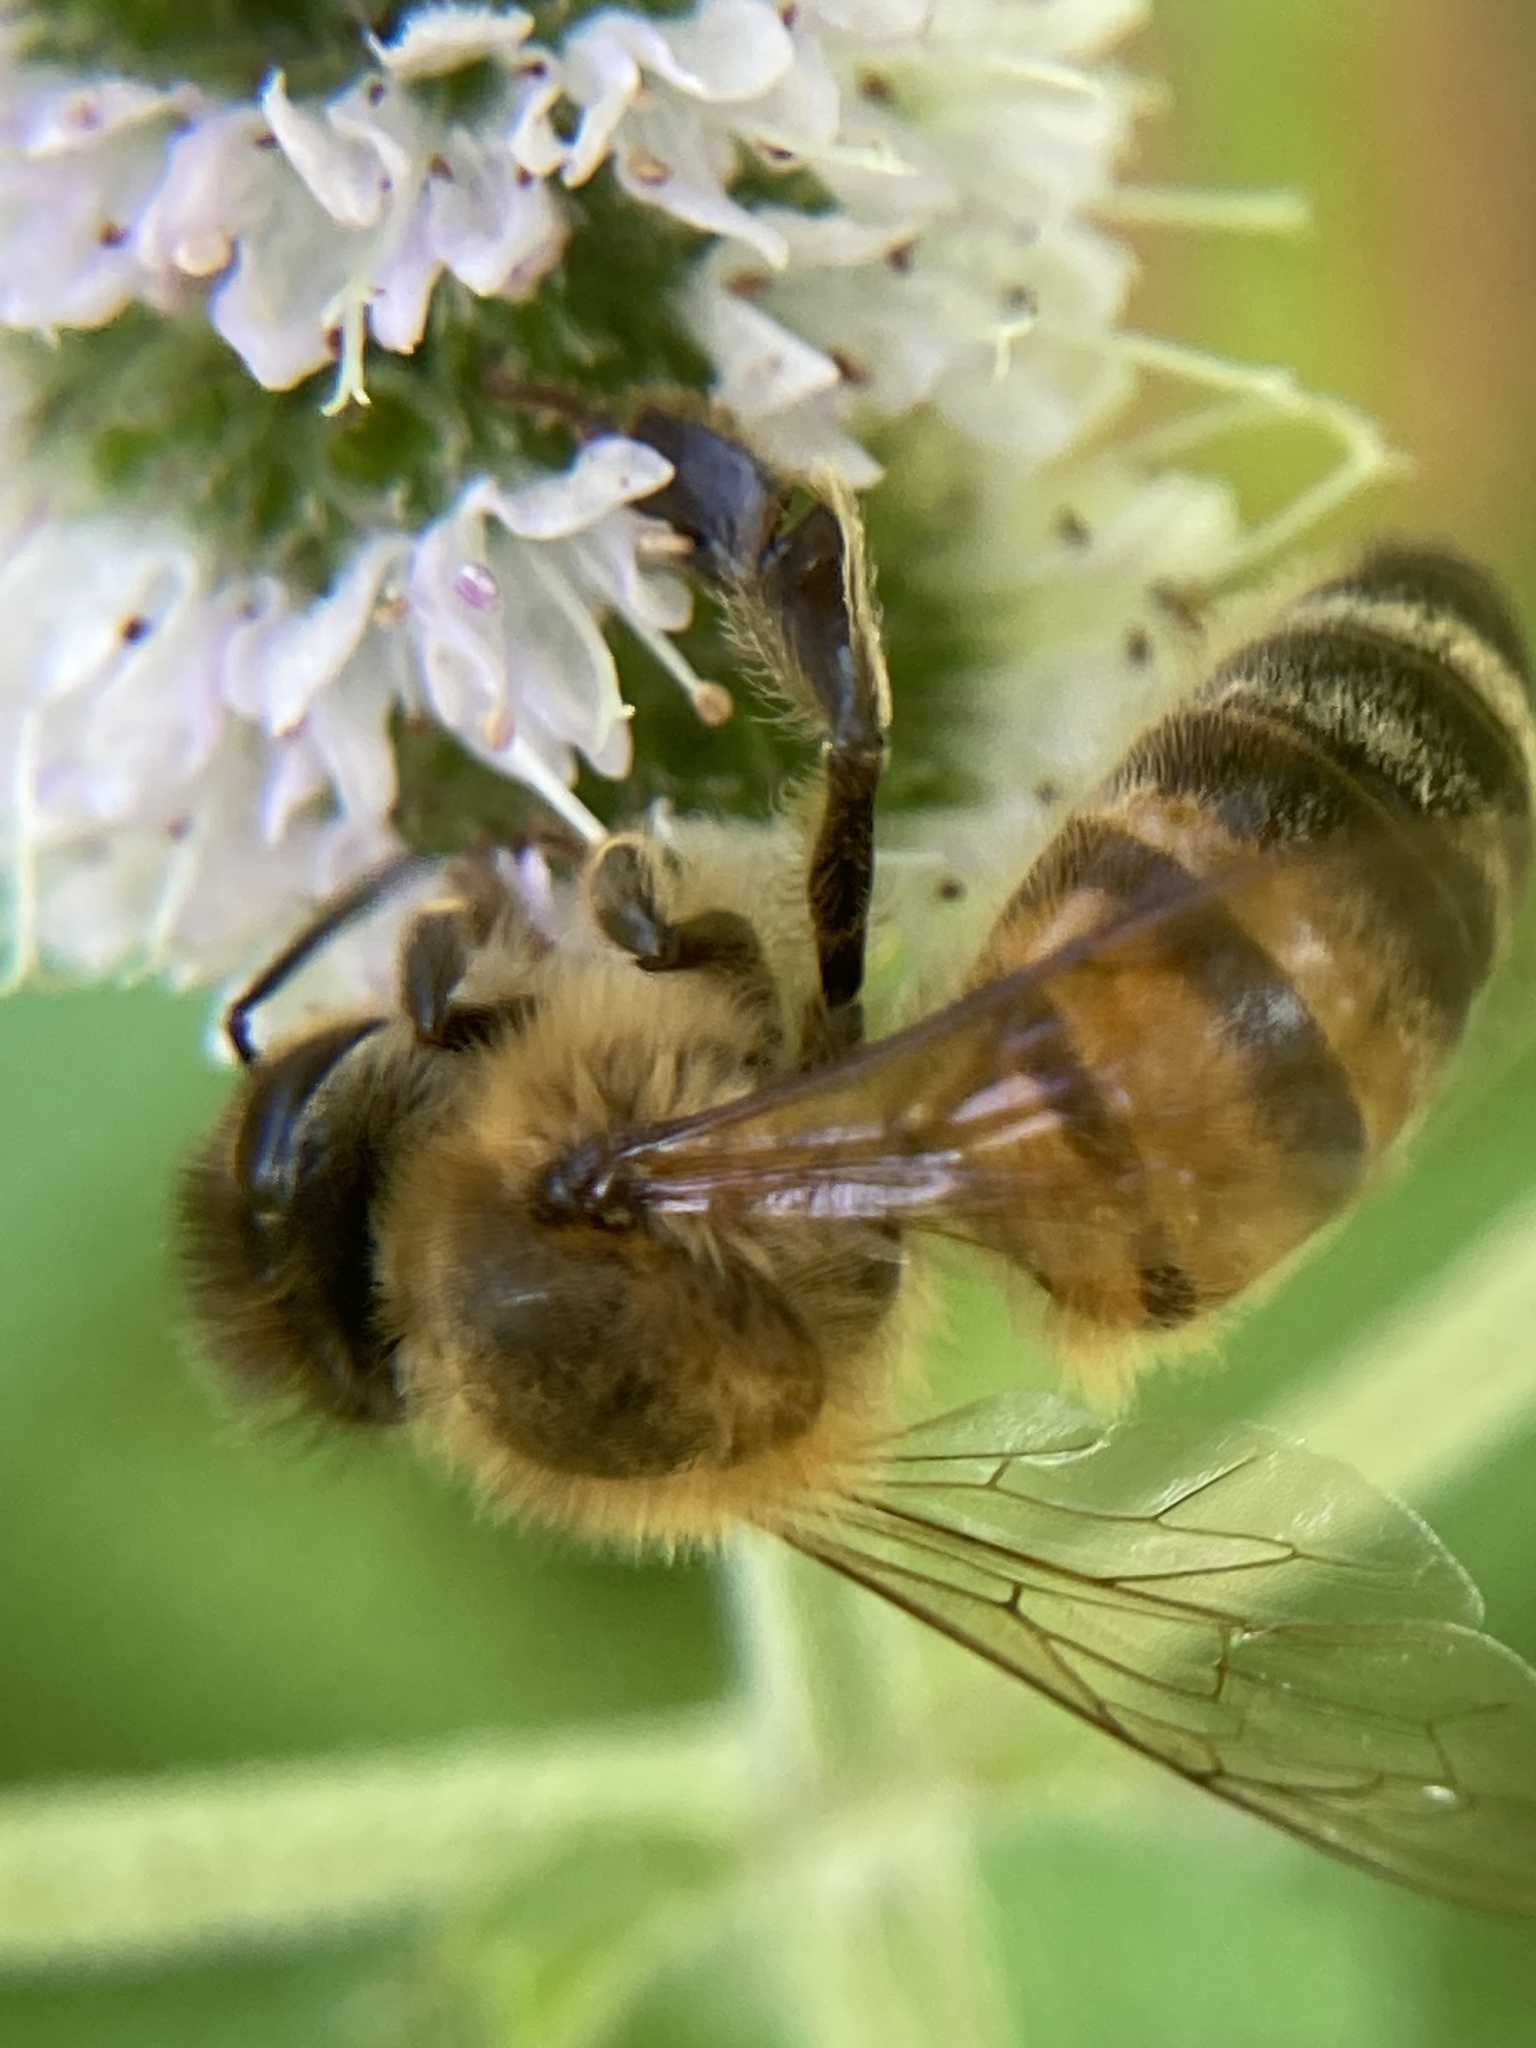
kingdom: Animalia
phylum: Arthropoda
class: Insecta
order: Hymenoptera
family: Apidae
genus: Apis
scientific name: Apis mellifera
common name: Honey bee
